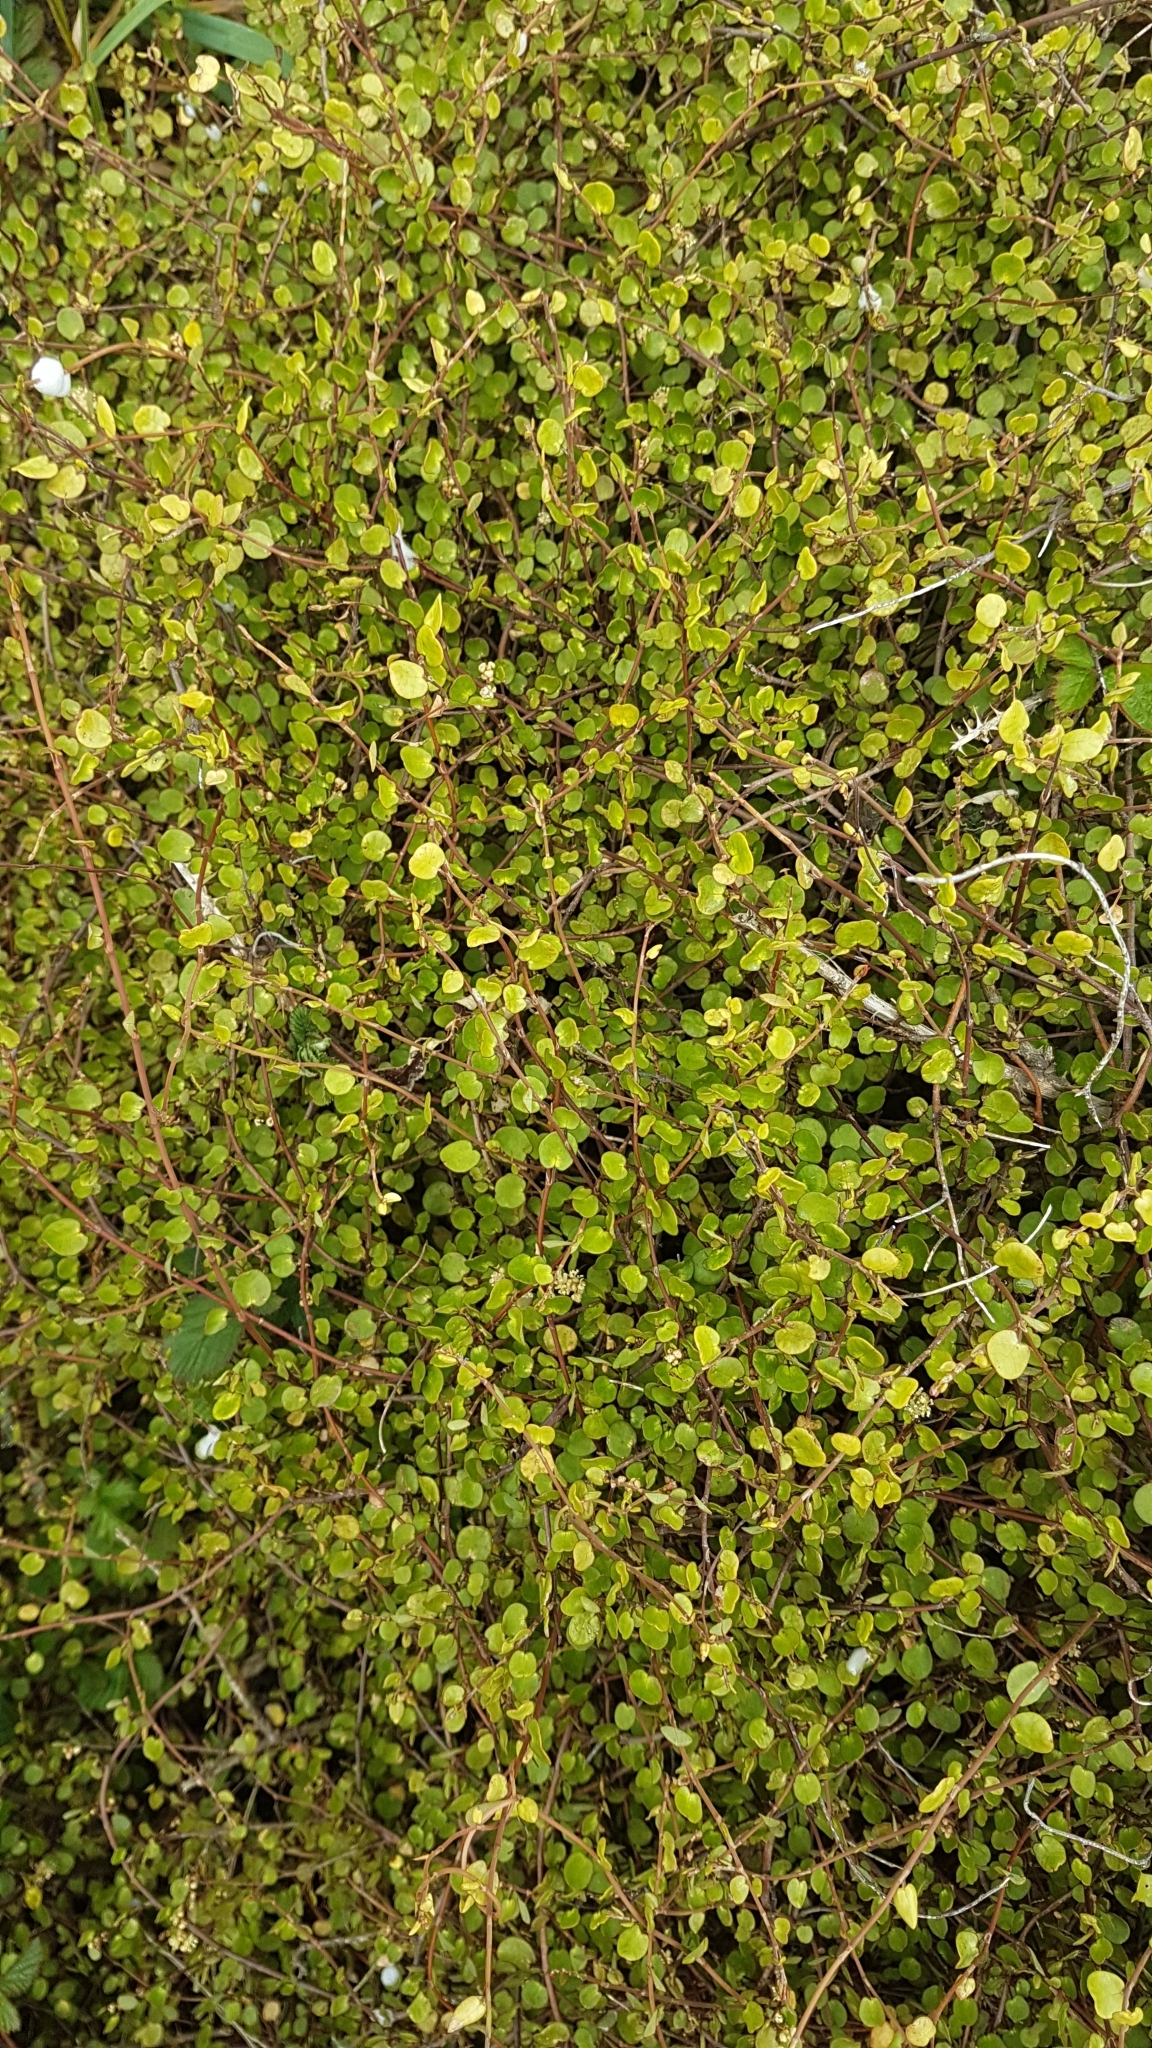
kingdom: Plantae
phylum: Tracheophyta
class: Magnoliopsida
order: Caryophyllales
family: Polygonaceae
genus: Muehlenbeckia
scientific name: Muehlenbeckia complexa
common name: Wireplant
